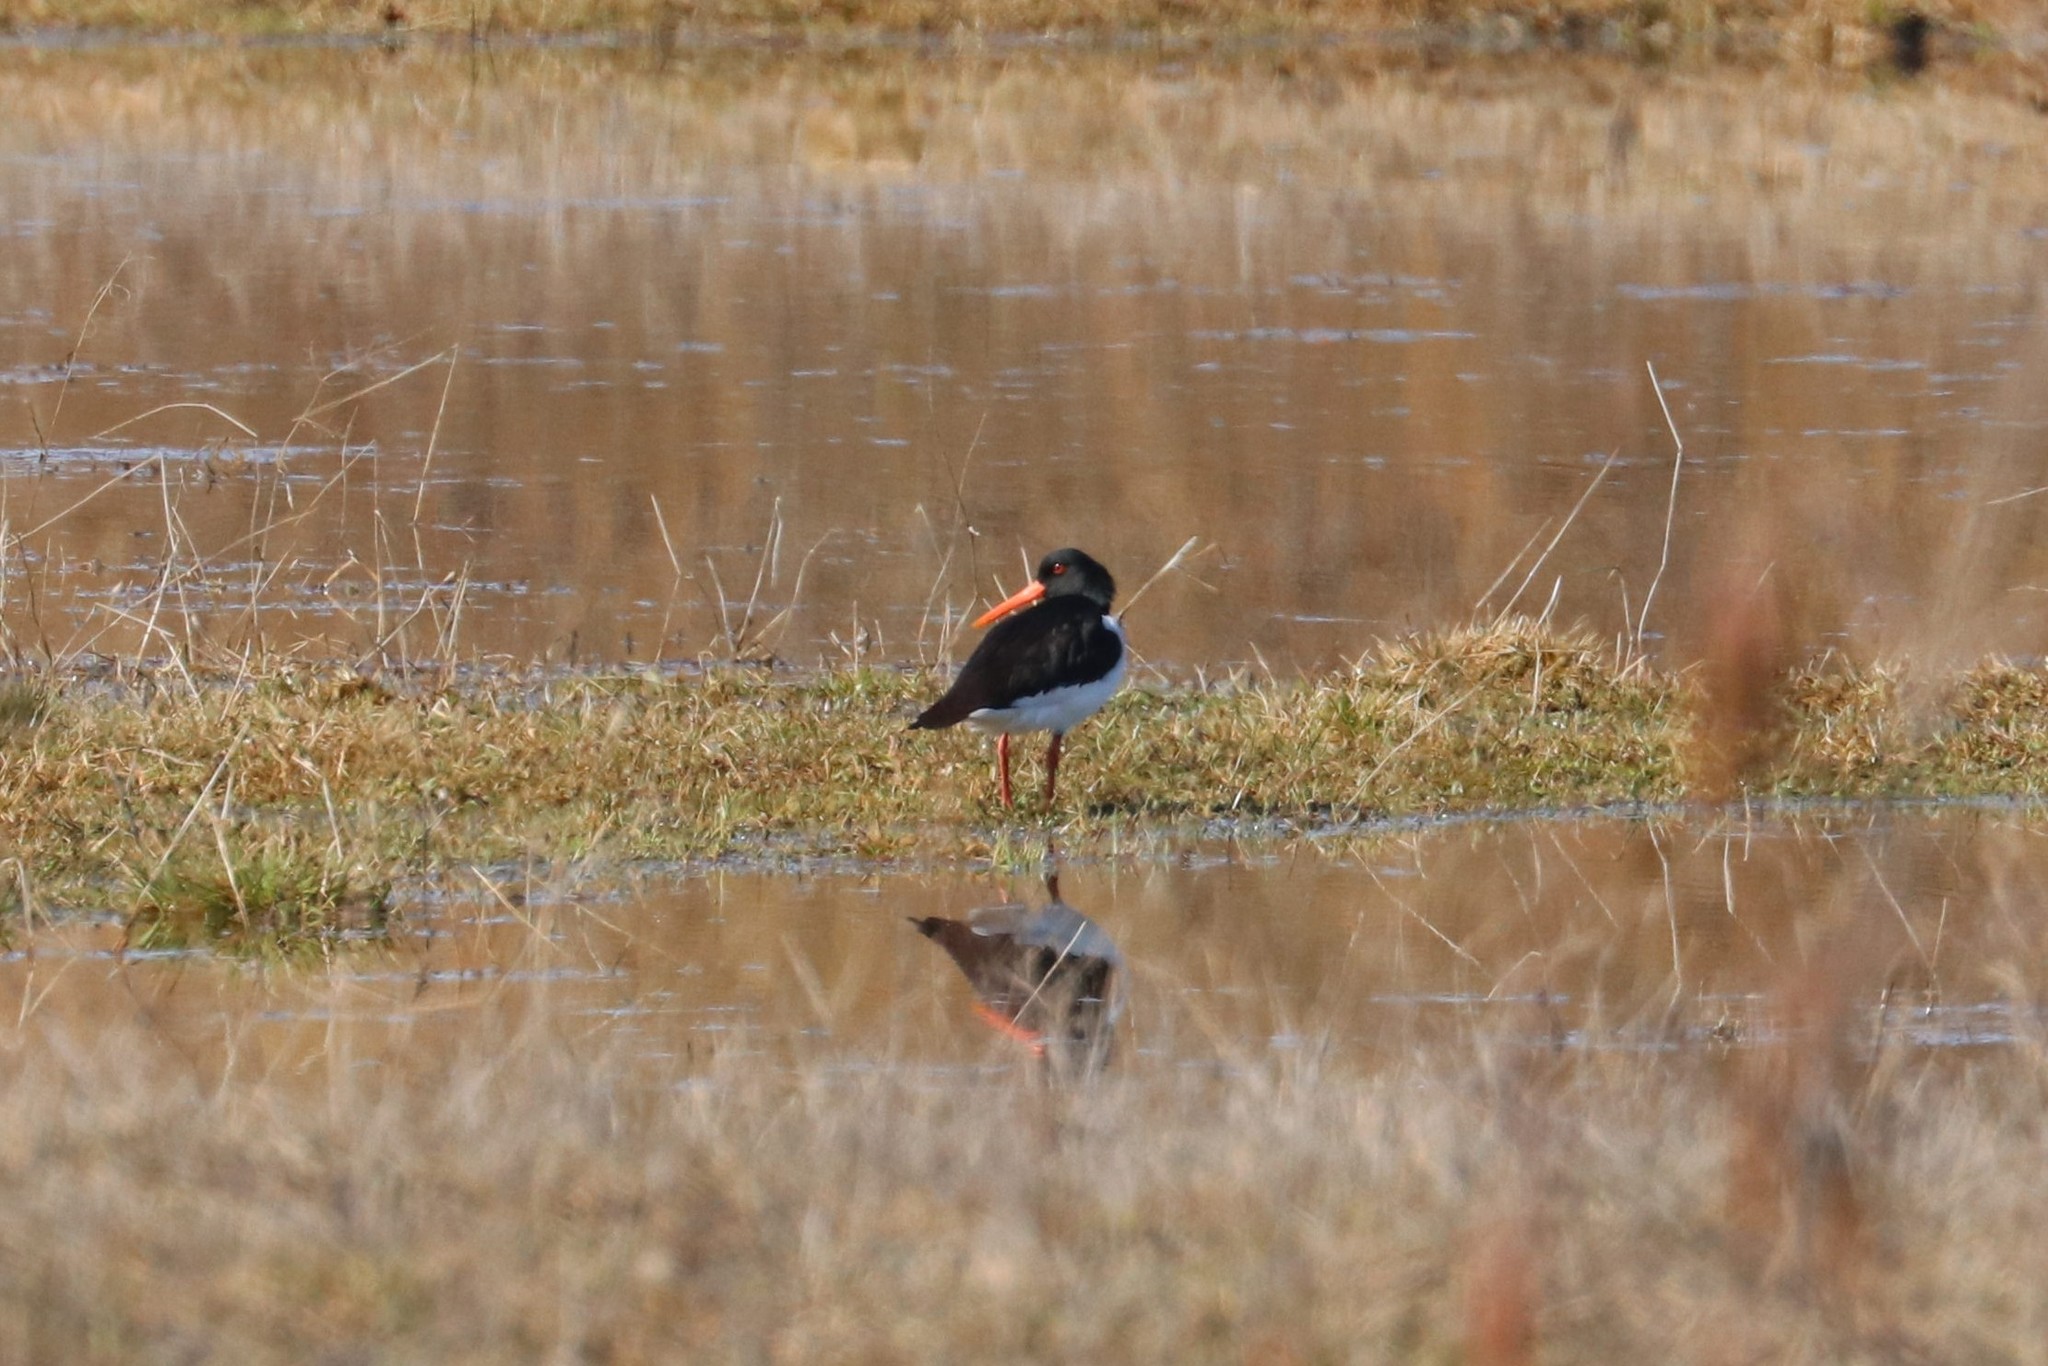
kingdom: Animalia
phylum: Chordata
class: Aves
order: Charadriiformes
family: Haematopodidae
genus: Haematopus
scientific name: Haematopus ostralegus
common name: Eurasian oystercatcher
